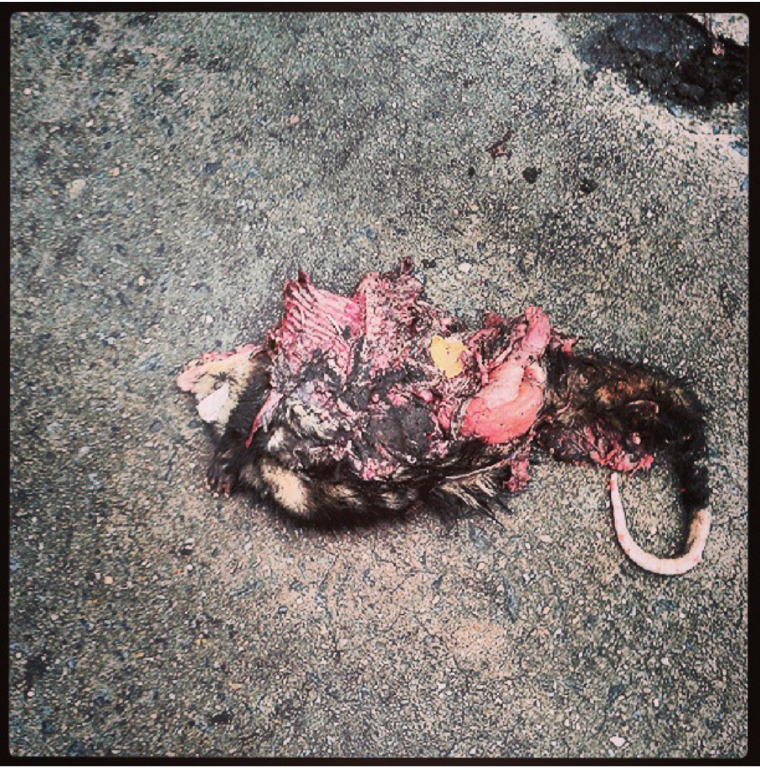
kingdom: Animalia
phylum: Chordata
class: Mammalia
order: Didelphimorphia
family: Didelphidae
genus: Didelphis
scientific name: Didelphis albiventris
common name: White-eared opossum
